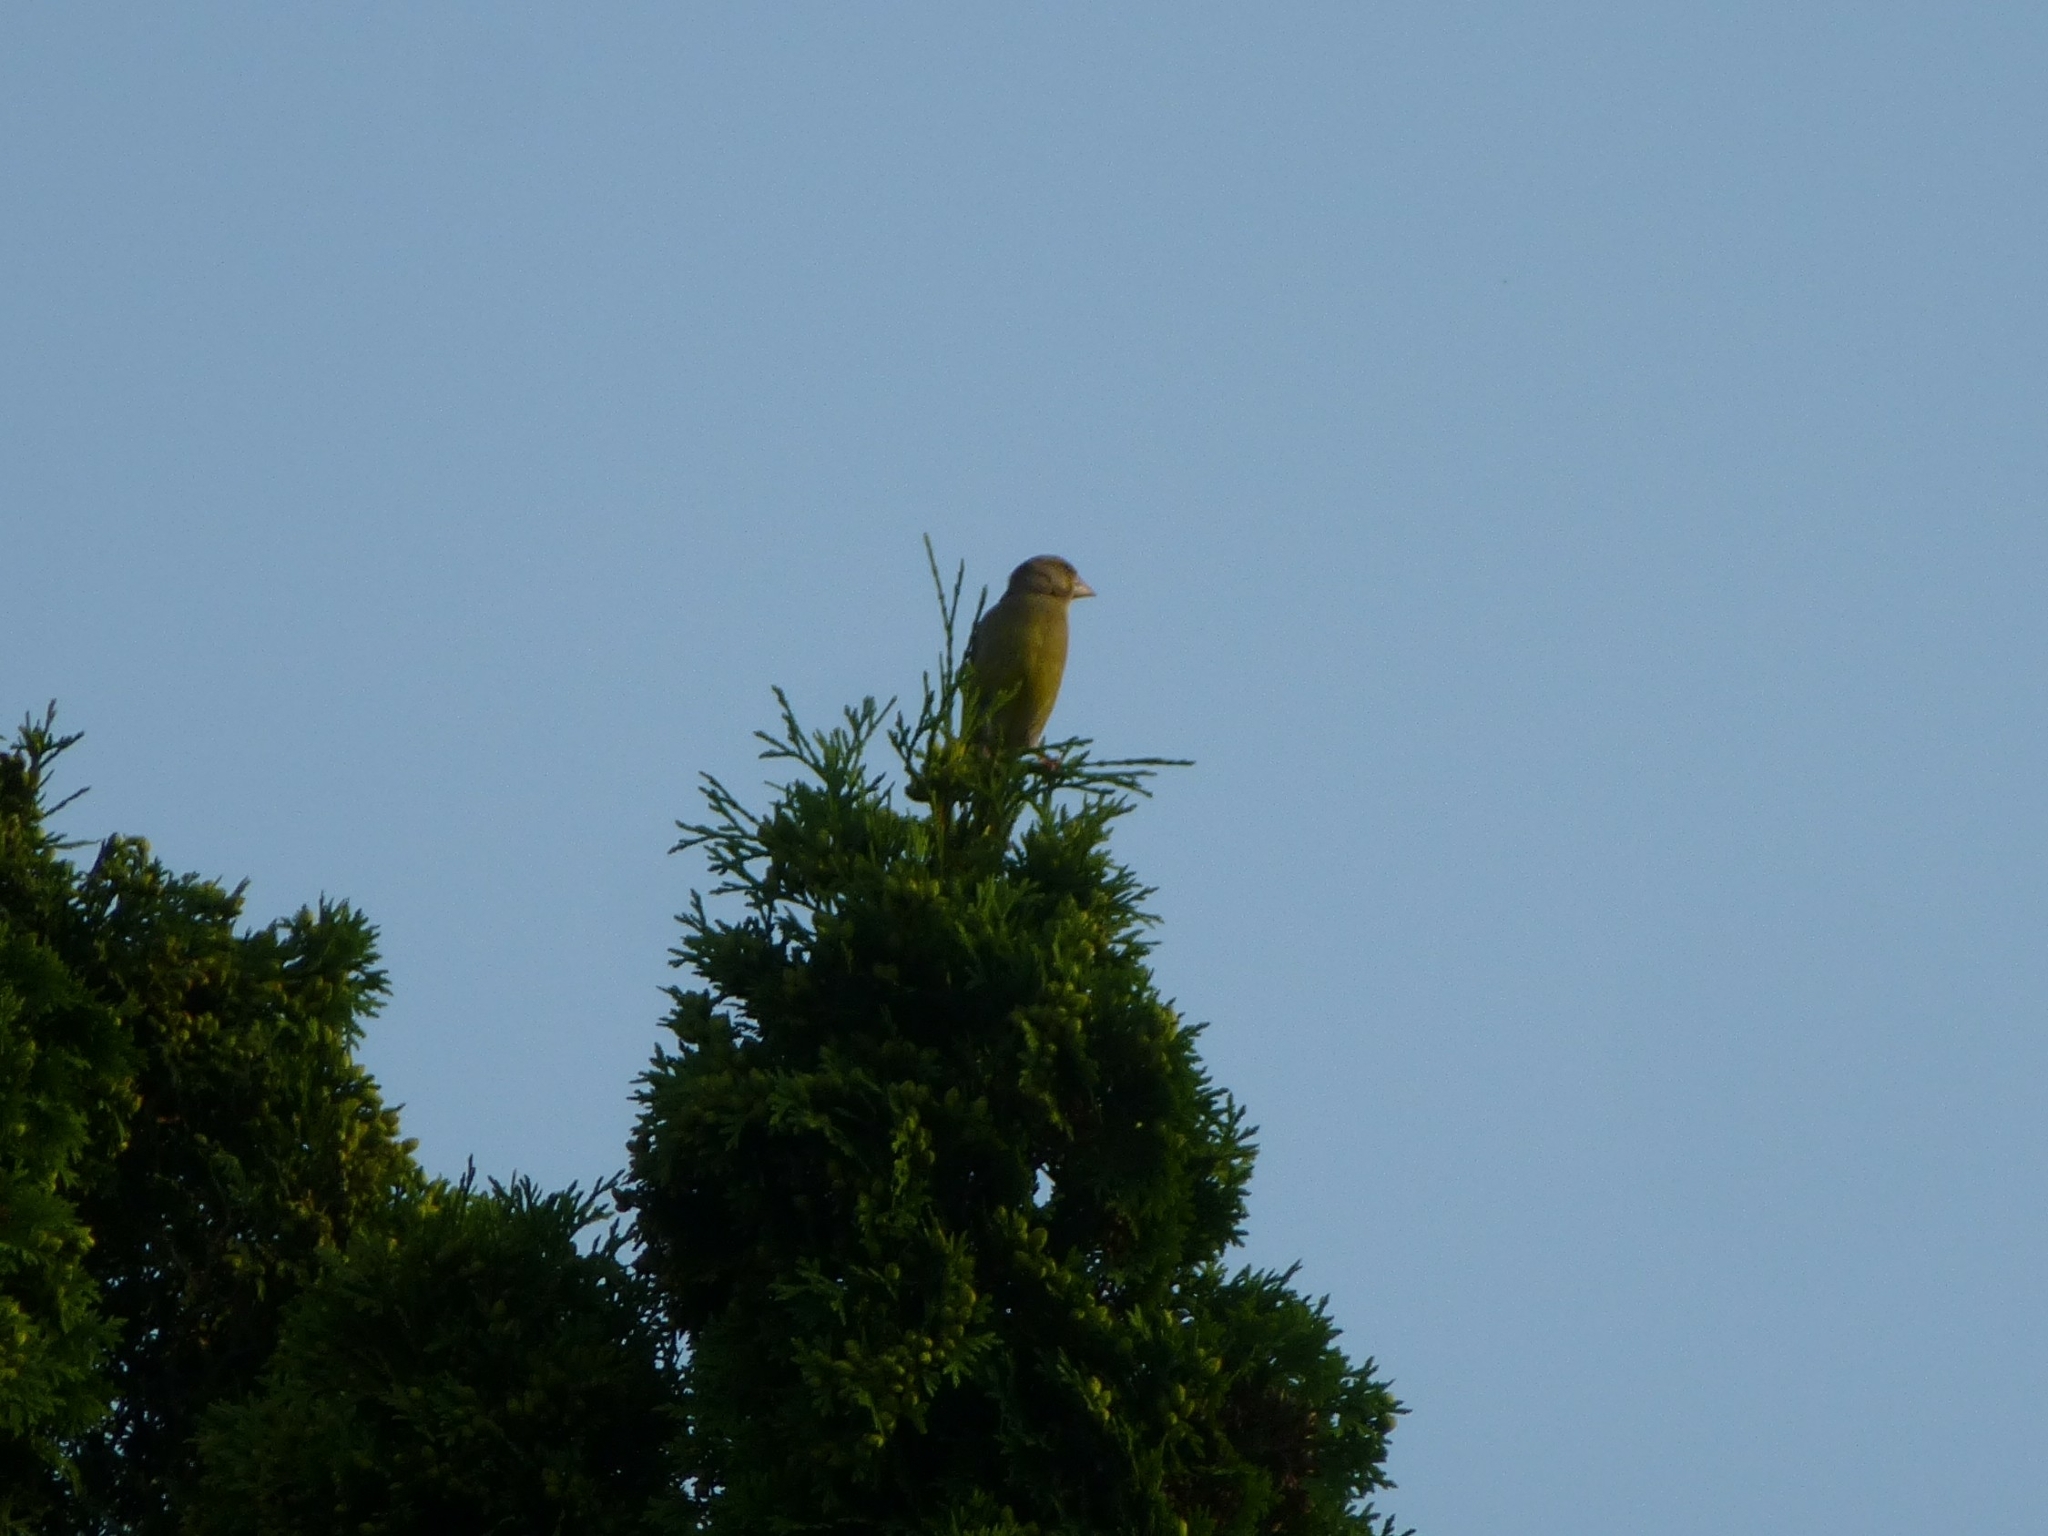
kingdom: Plantae
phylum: Tracheophyta
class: Liliopsida
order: Poales
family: Poaceae
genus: Chloris
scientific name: Chloris chloris
